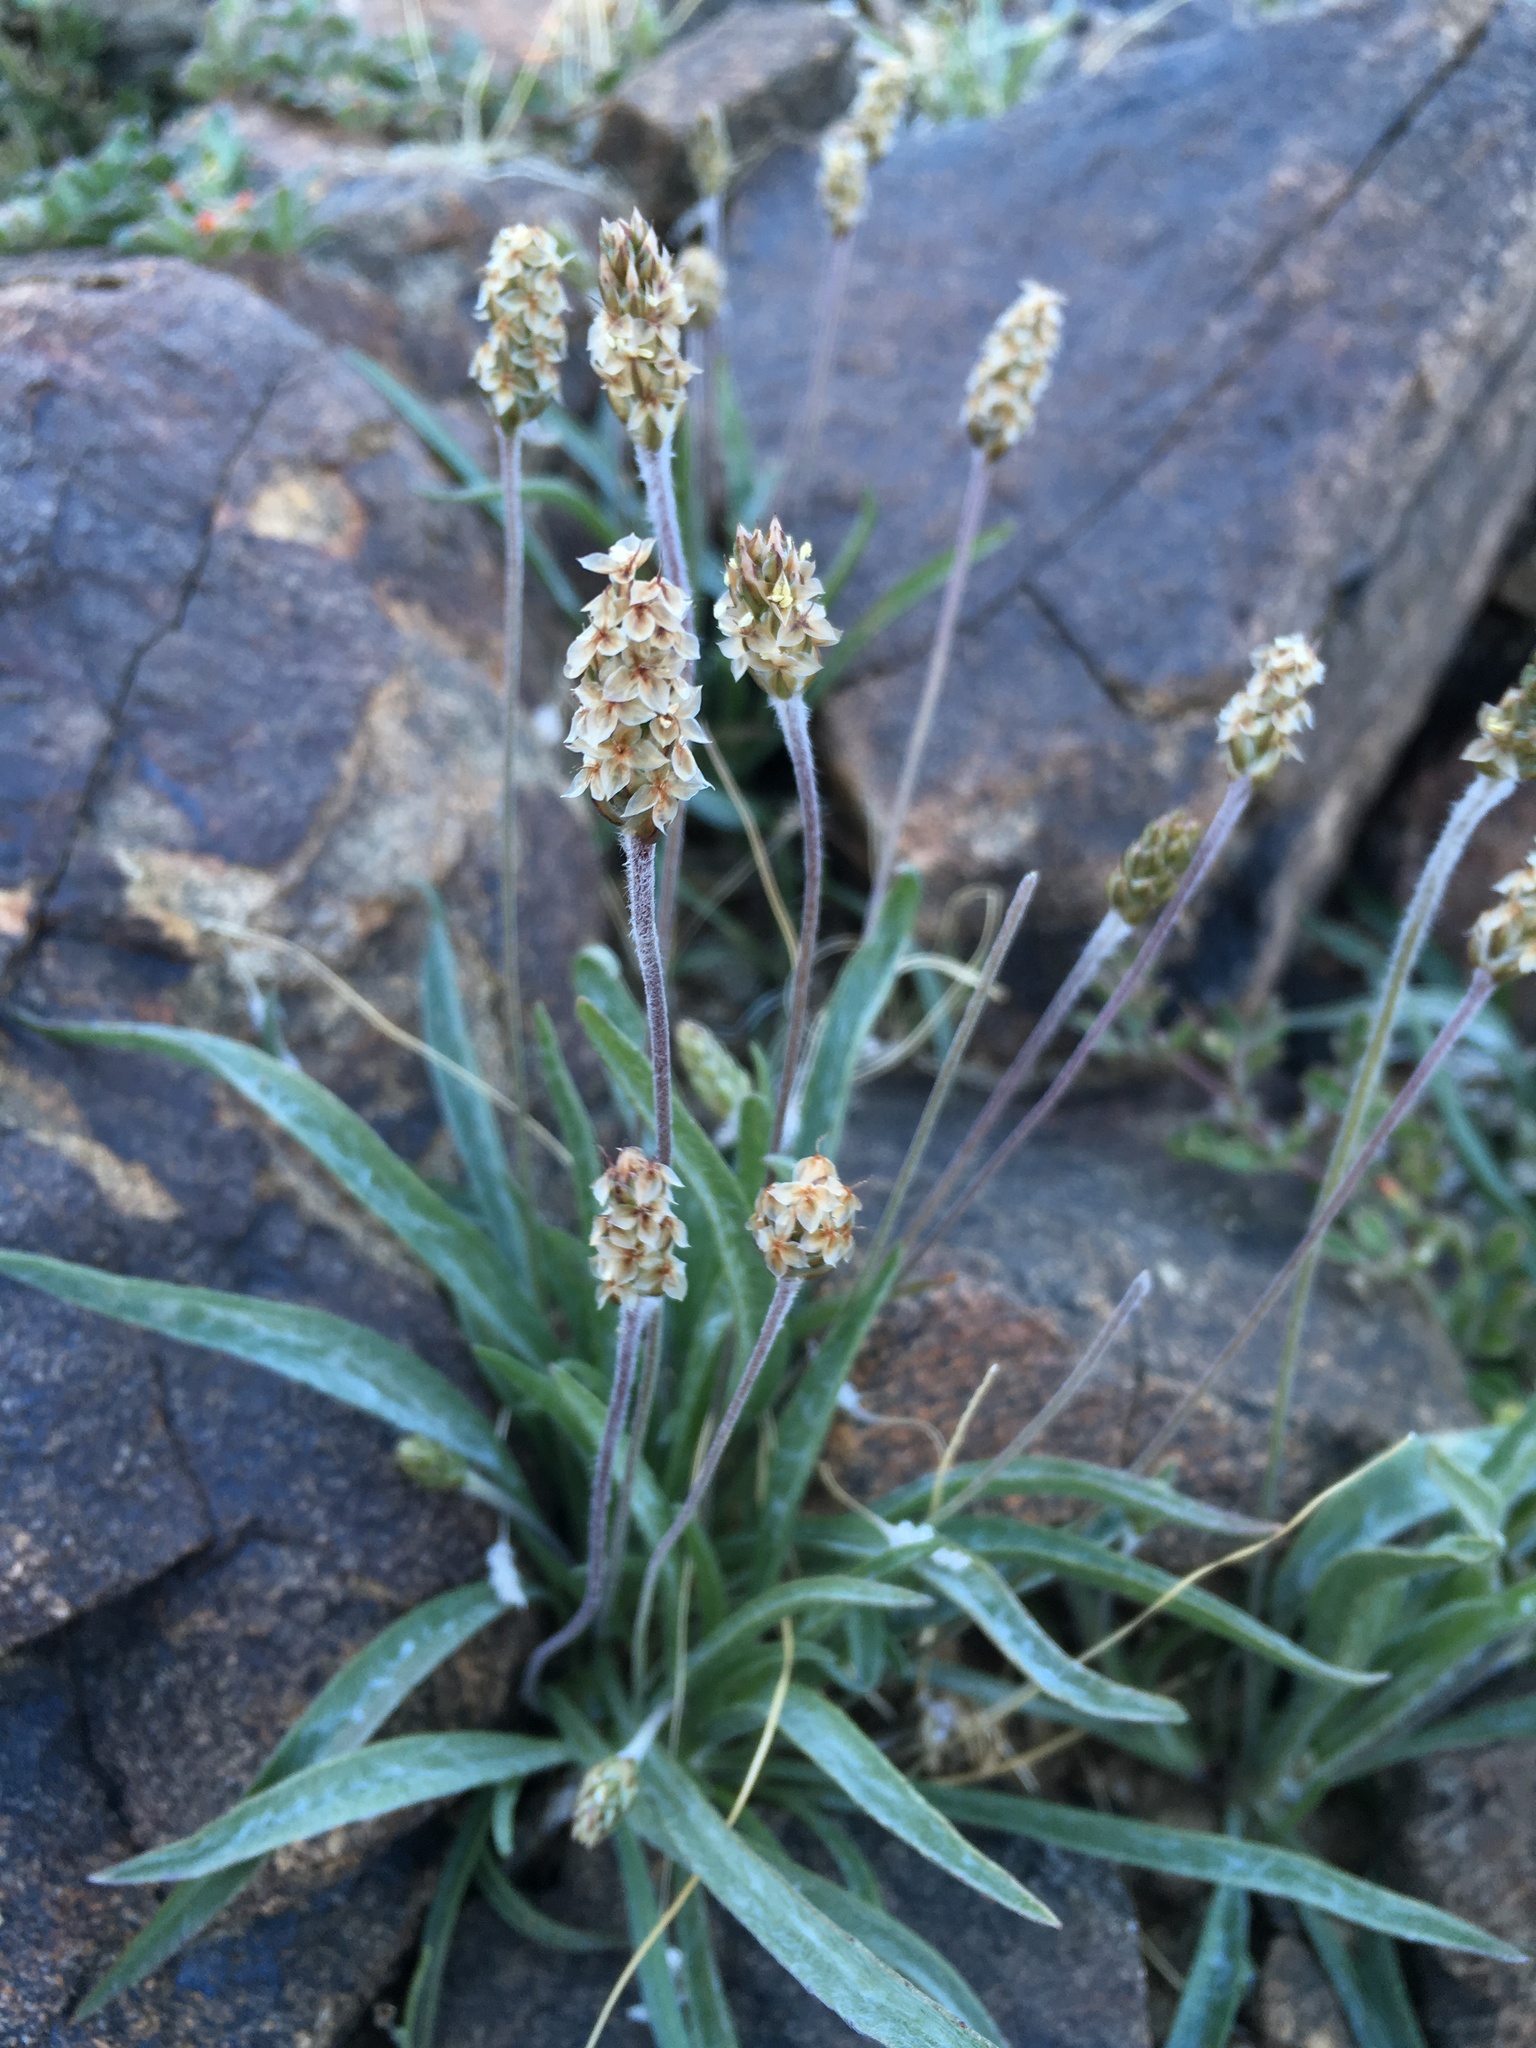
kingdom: Plantae
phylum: Tracheophyta
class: Magnoliopsida
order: Lamiales
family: Plantaginaceae
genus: Plantago
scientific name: Plantago ovata
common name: Blond plantain
